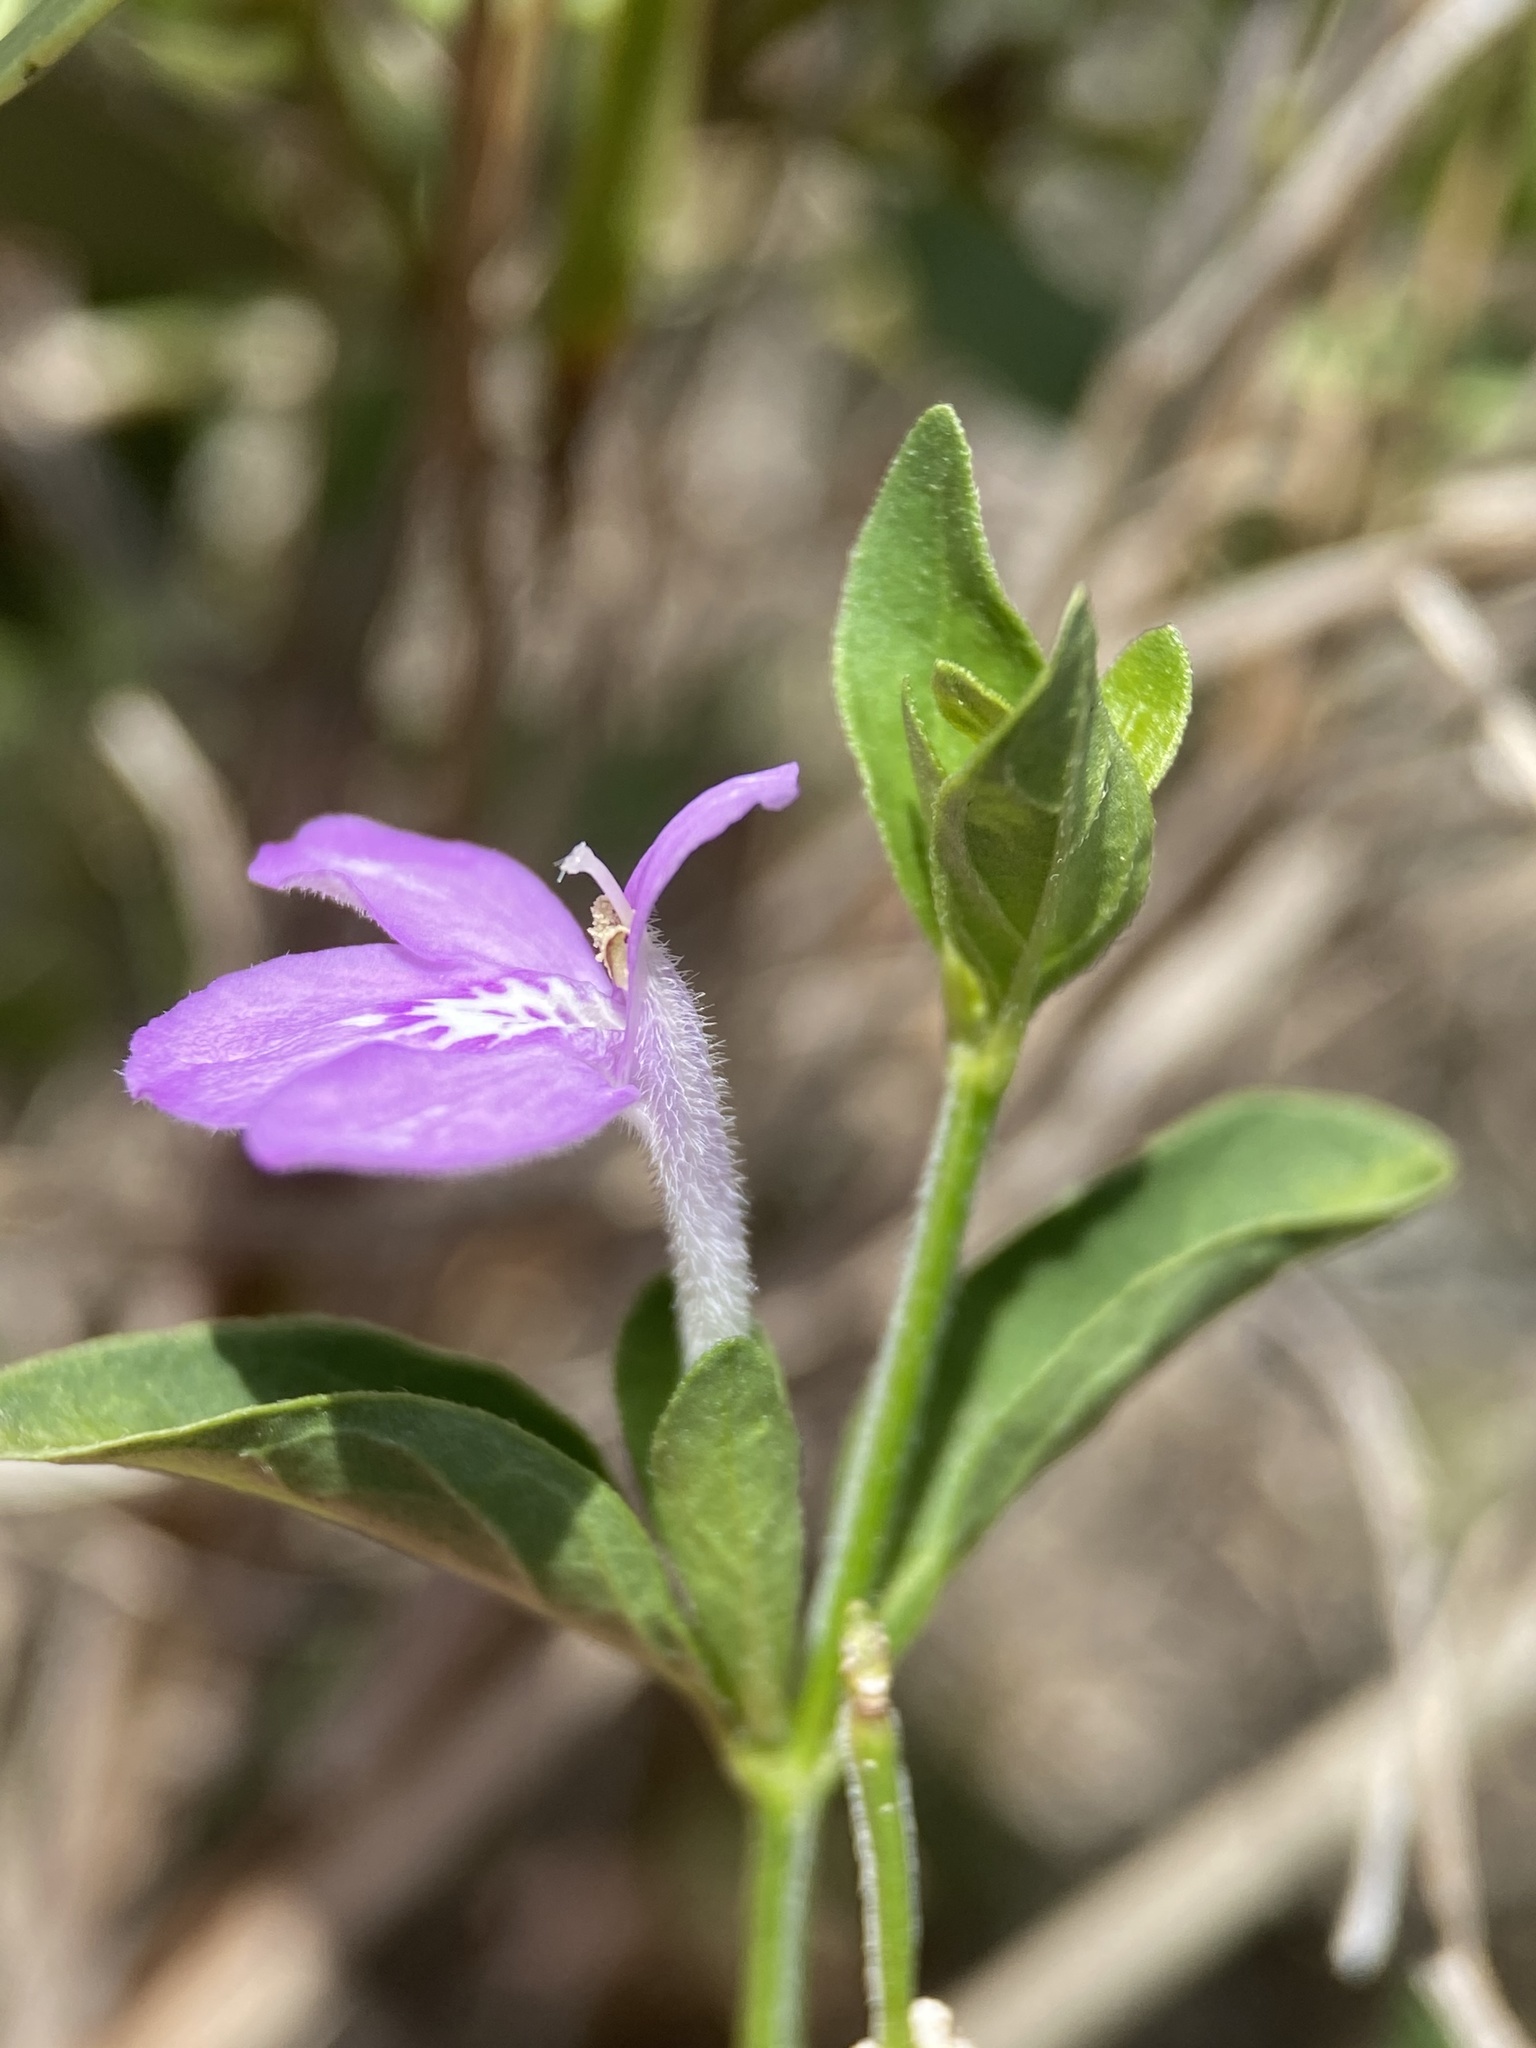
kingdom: Plantae
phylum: Tracheophyta
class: Magnoliopsida
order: Lamiales
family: Acanthaceae
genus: Justicia
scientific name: Justicia pilosella
